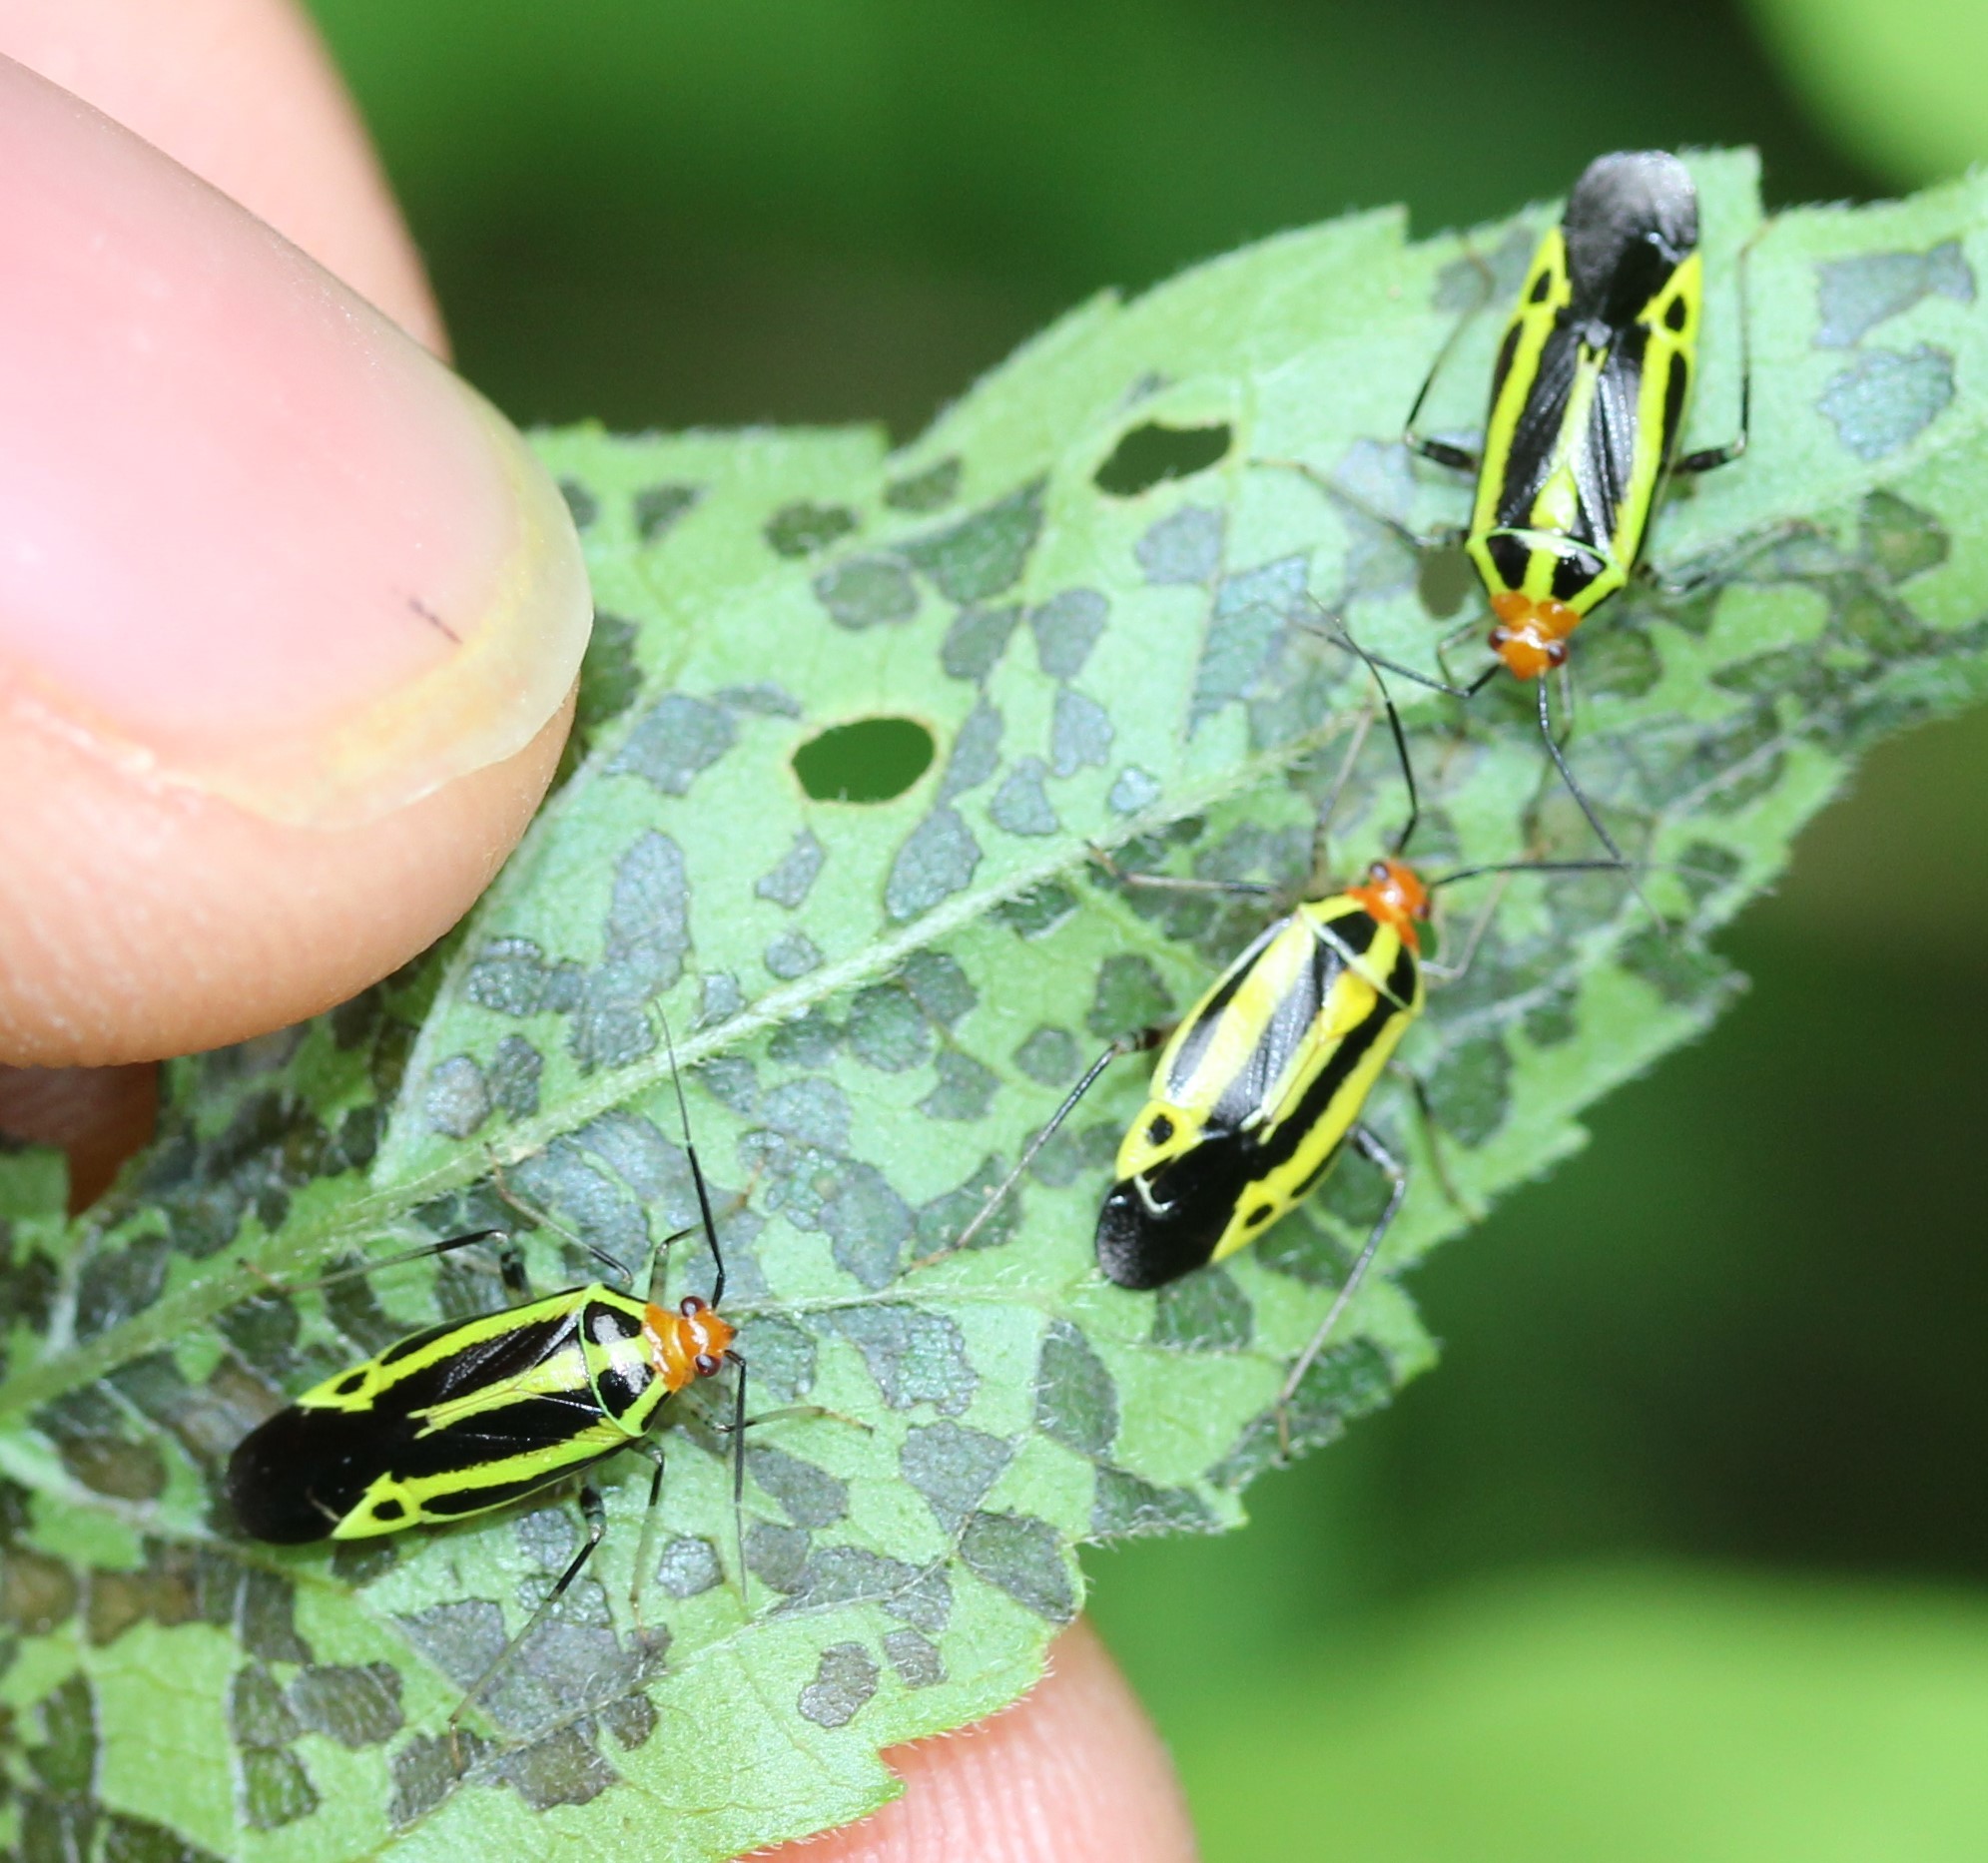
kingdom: Animalia
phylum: Arthropoda
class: Insecta
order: Hemiptera
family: Miridae
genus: Poecilocapsus
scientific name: Poecilocapsus lineatus
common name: Four-lined plant bug
